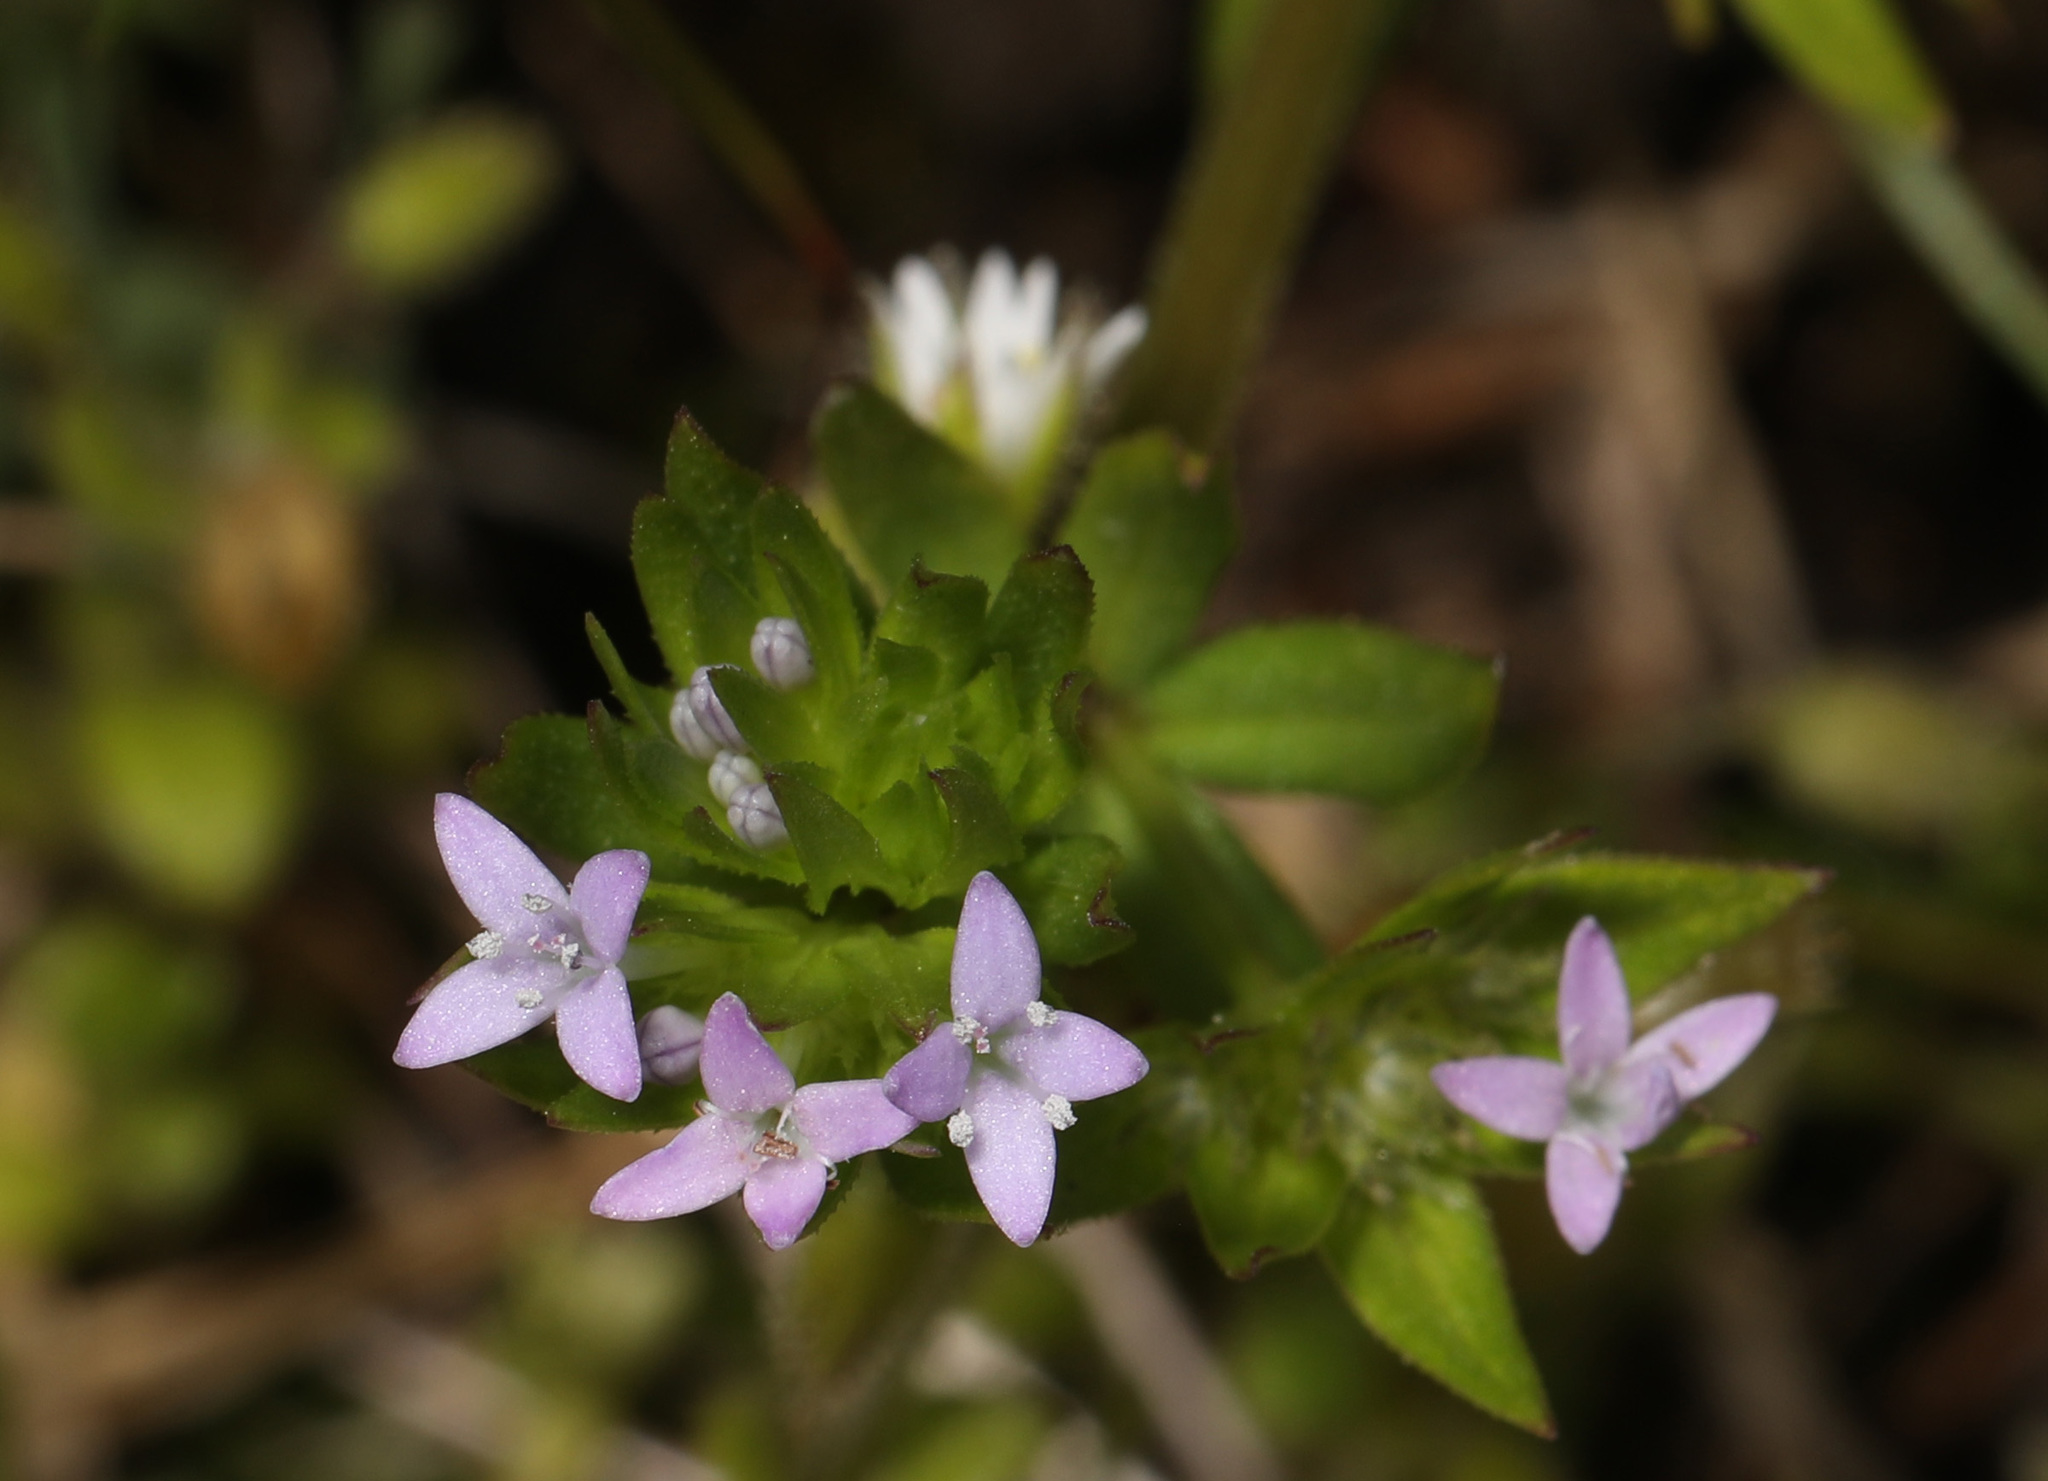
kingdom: Plantae
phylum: Tracheophyta
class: Magnoliopsida
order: Gentianales
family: Rubiaceae
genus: Sherardia
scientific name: Sherardia arvensis
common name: Field madder
